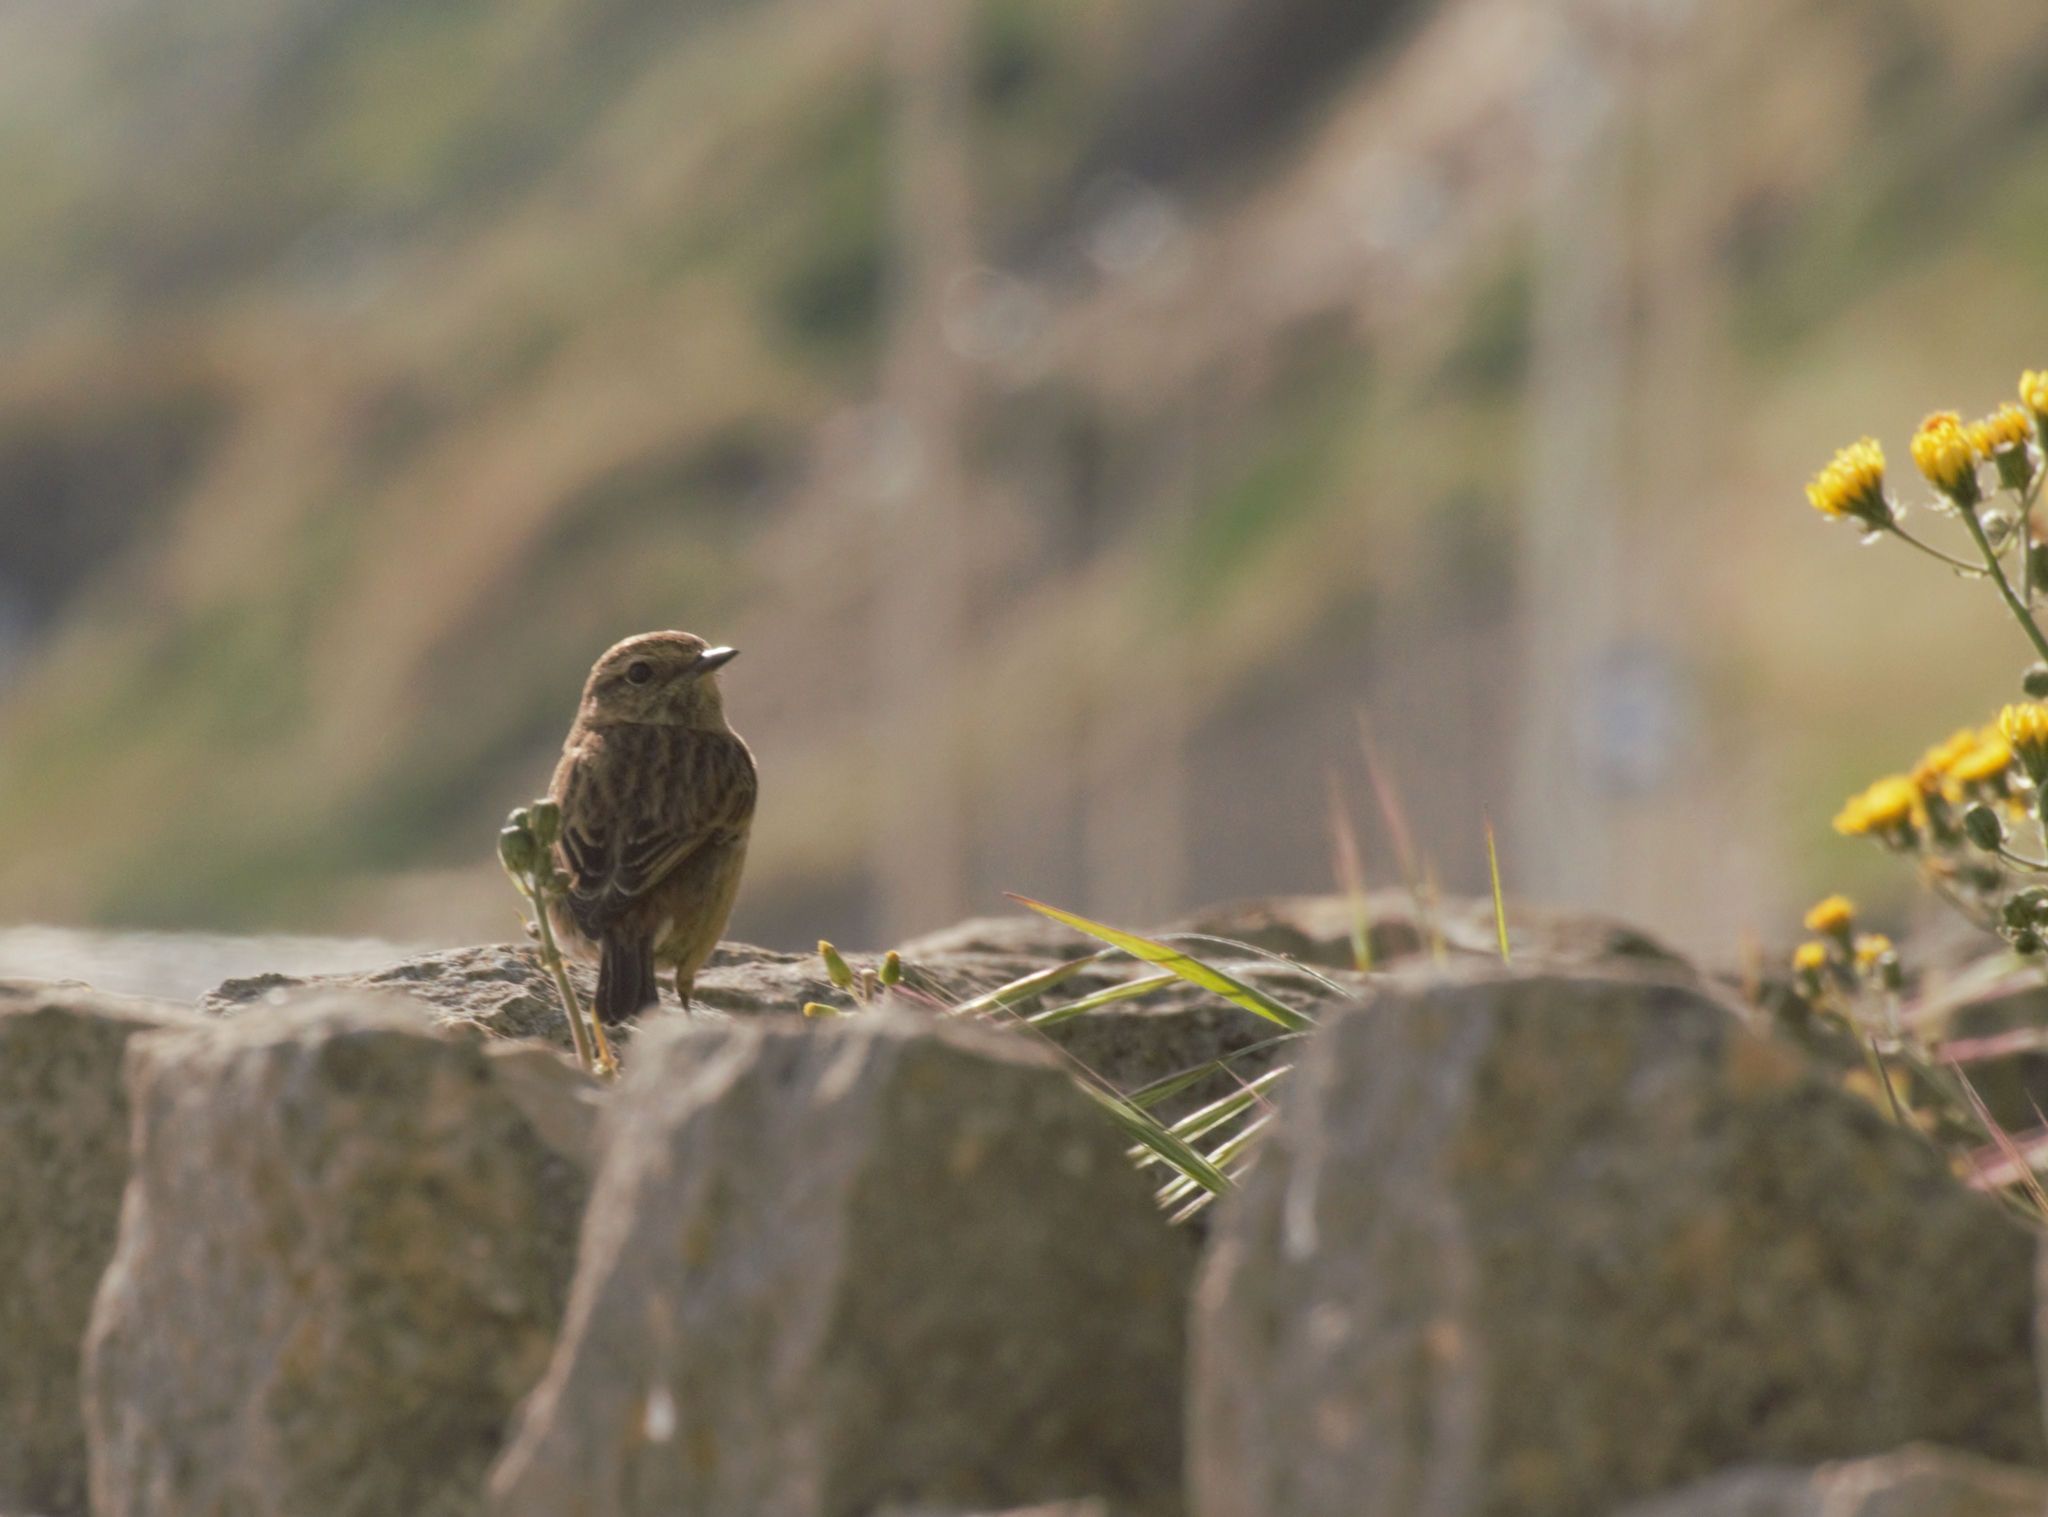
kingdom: Animalia
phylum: Chordata
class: Aves
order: Passeriformes
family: Muscicapidae
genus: Saxicola
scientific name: Saxicola rubicola
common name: European stonechat
